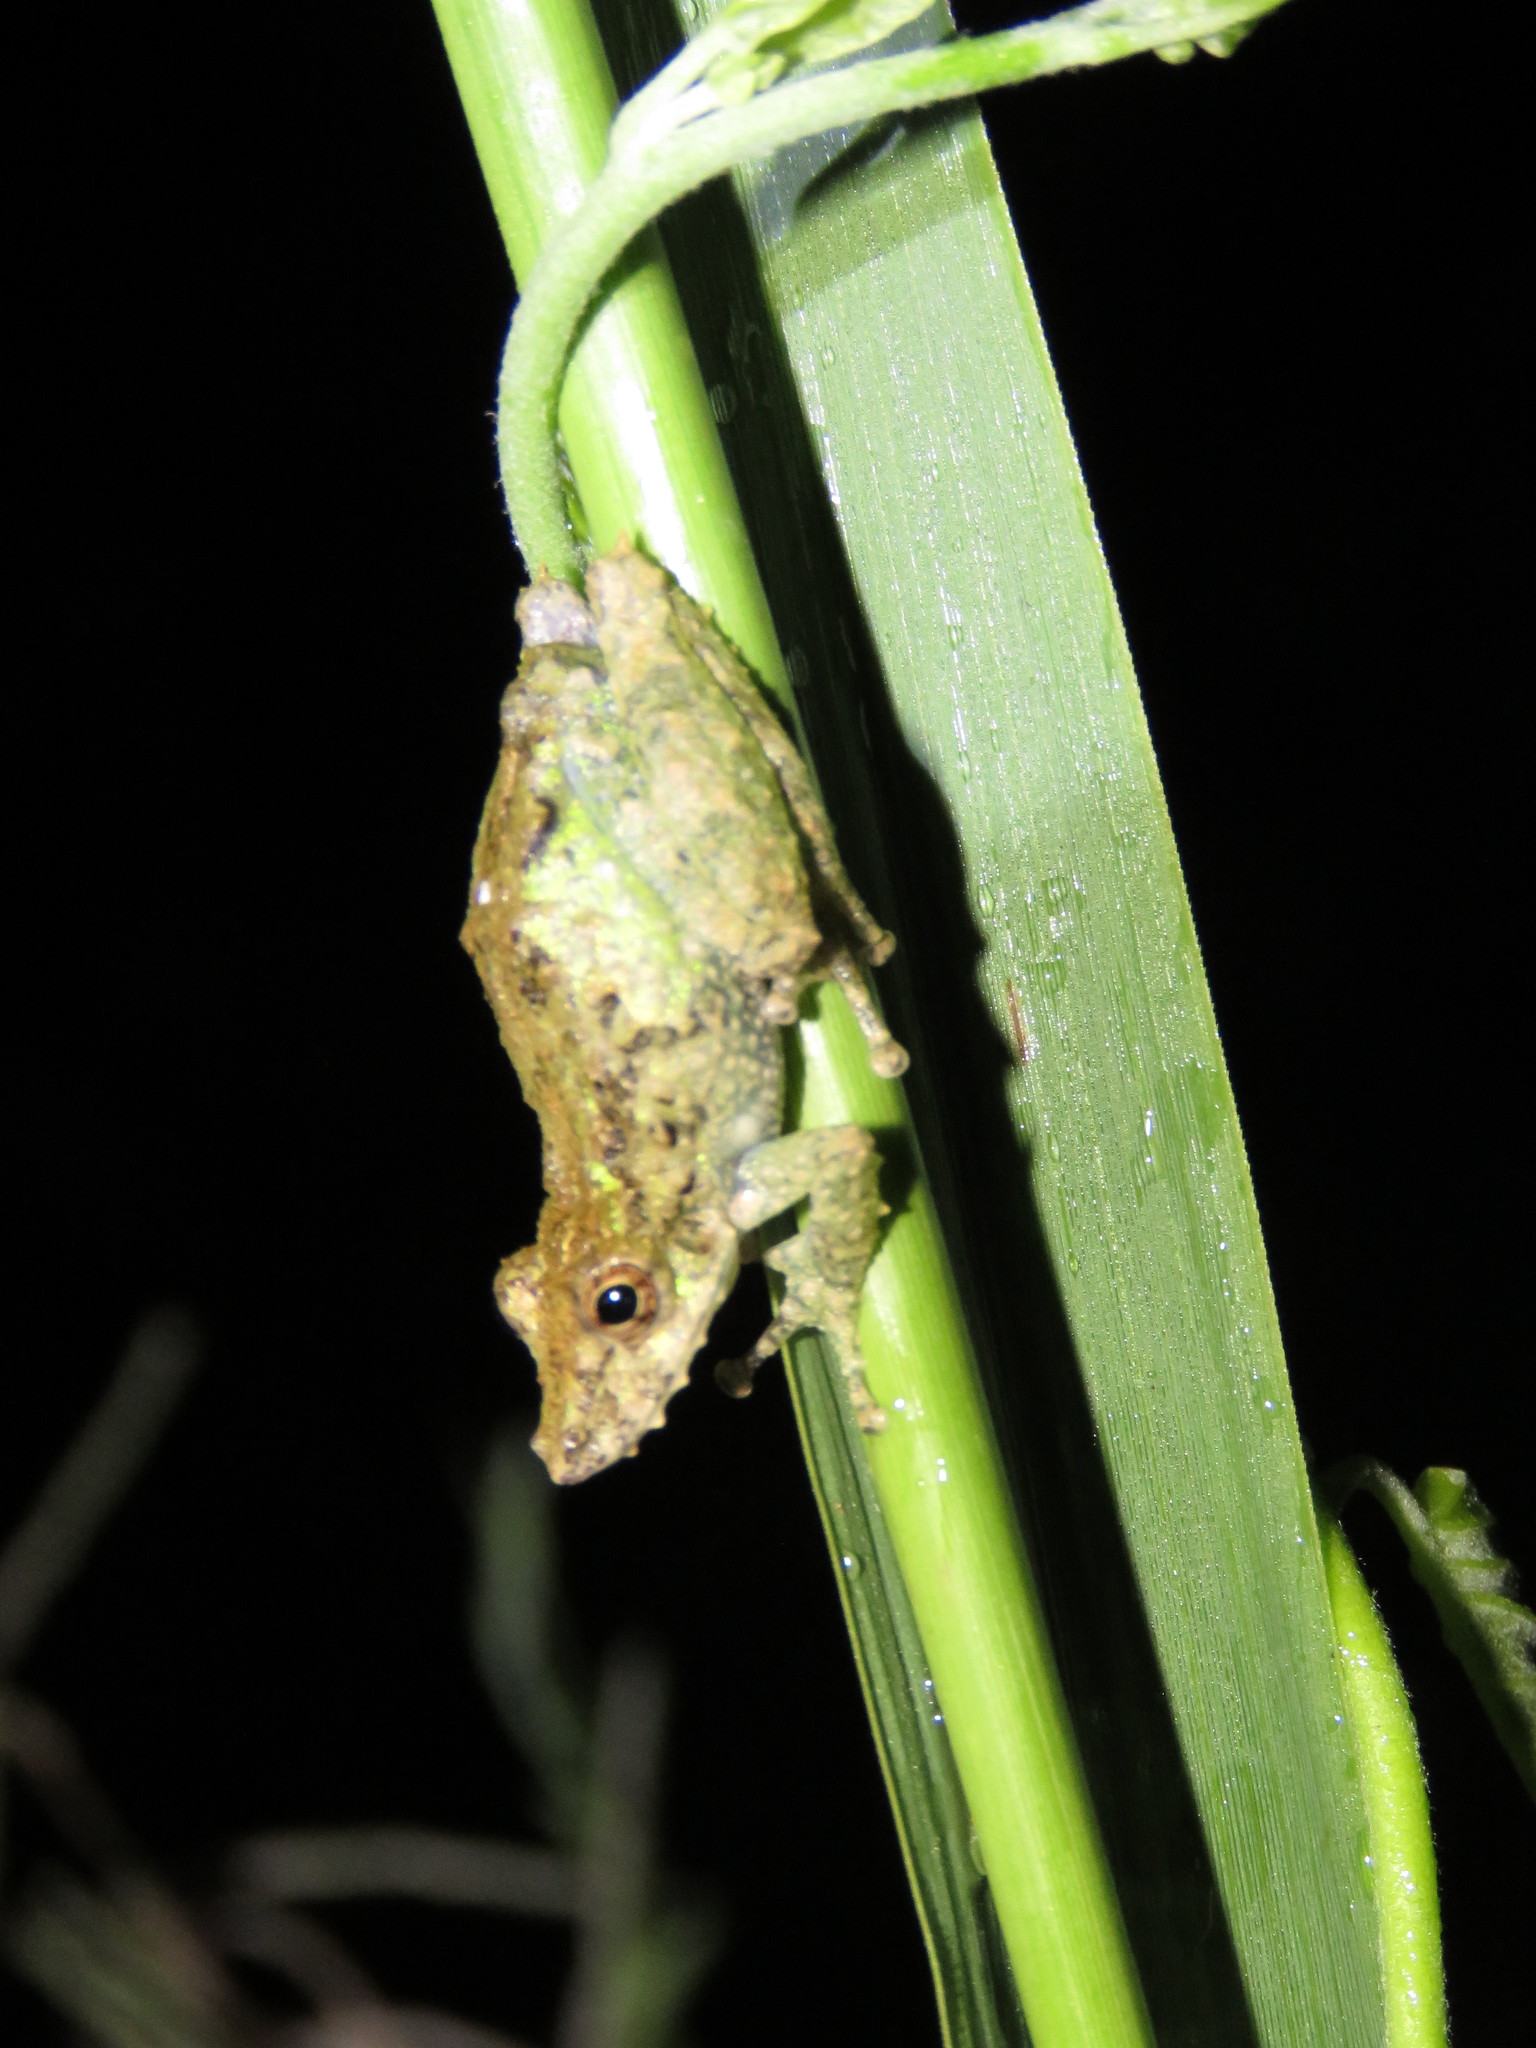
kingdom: Animalia
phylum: Chordata
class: Amphibia
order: Anura
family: Hylidae
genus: Scinax
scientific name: Scinax garbei
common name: Eirunepe snouted treefrog
